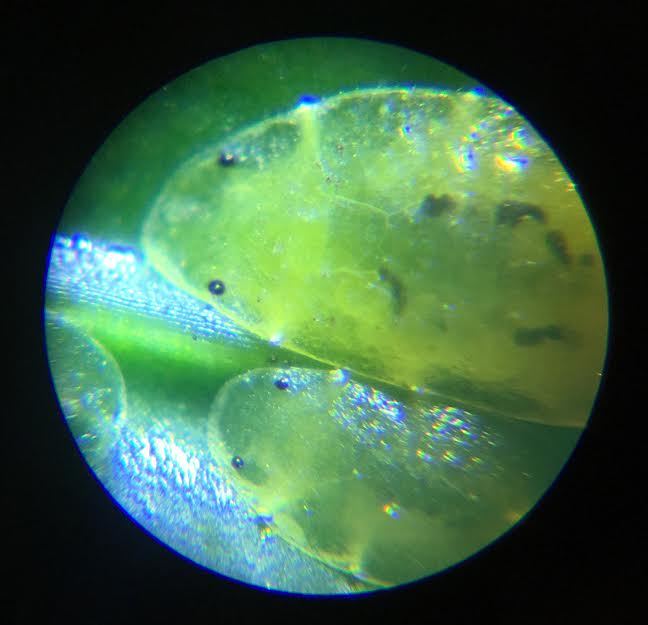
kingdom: Animalia
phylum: Arthropoda
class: Insecta
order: Hemiptera
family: Coccidae
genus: Coccus
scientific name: Coccus viridis
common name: Green scale
